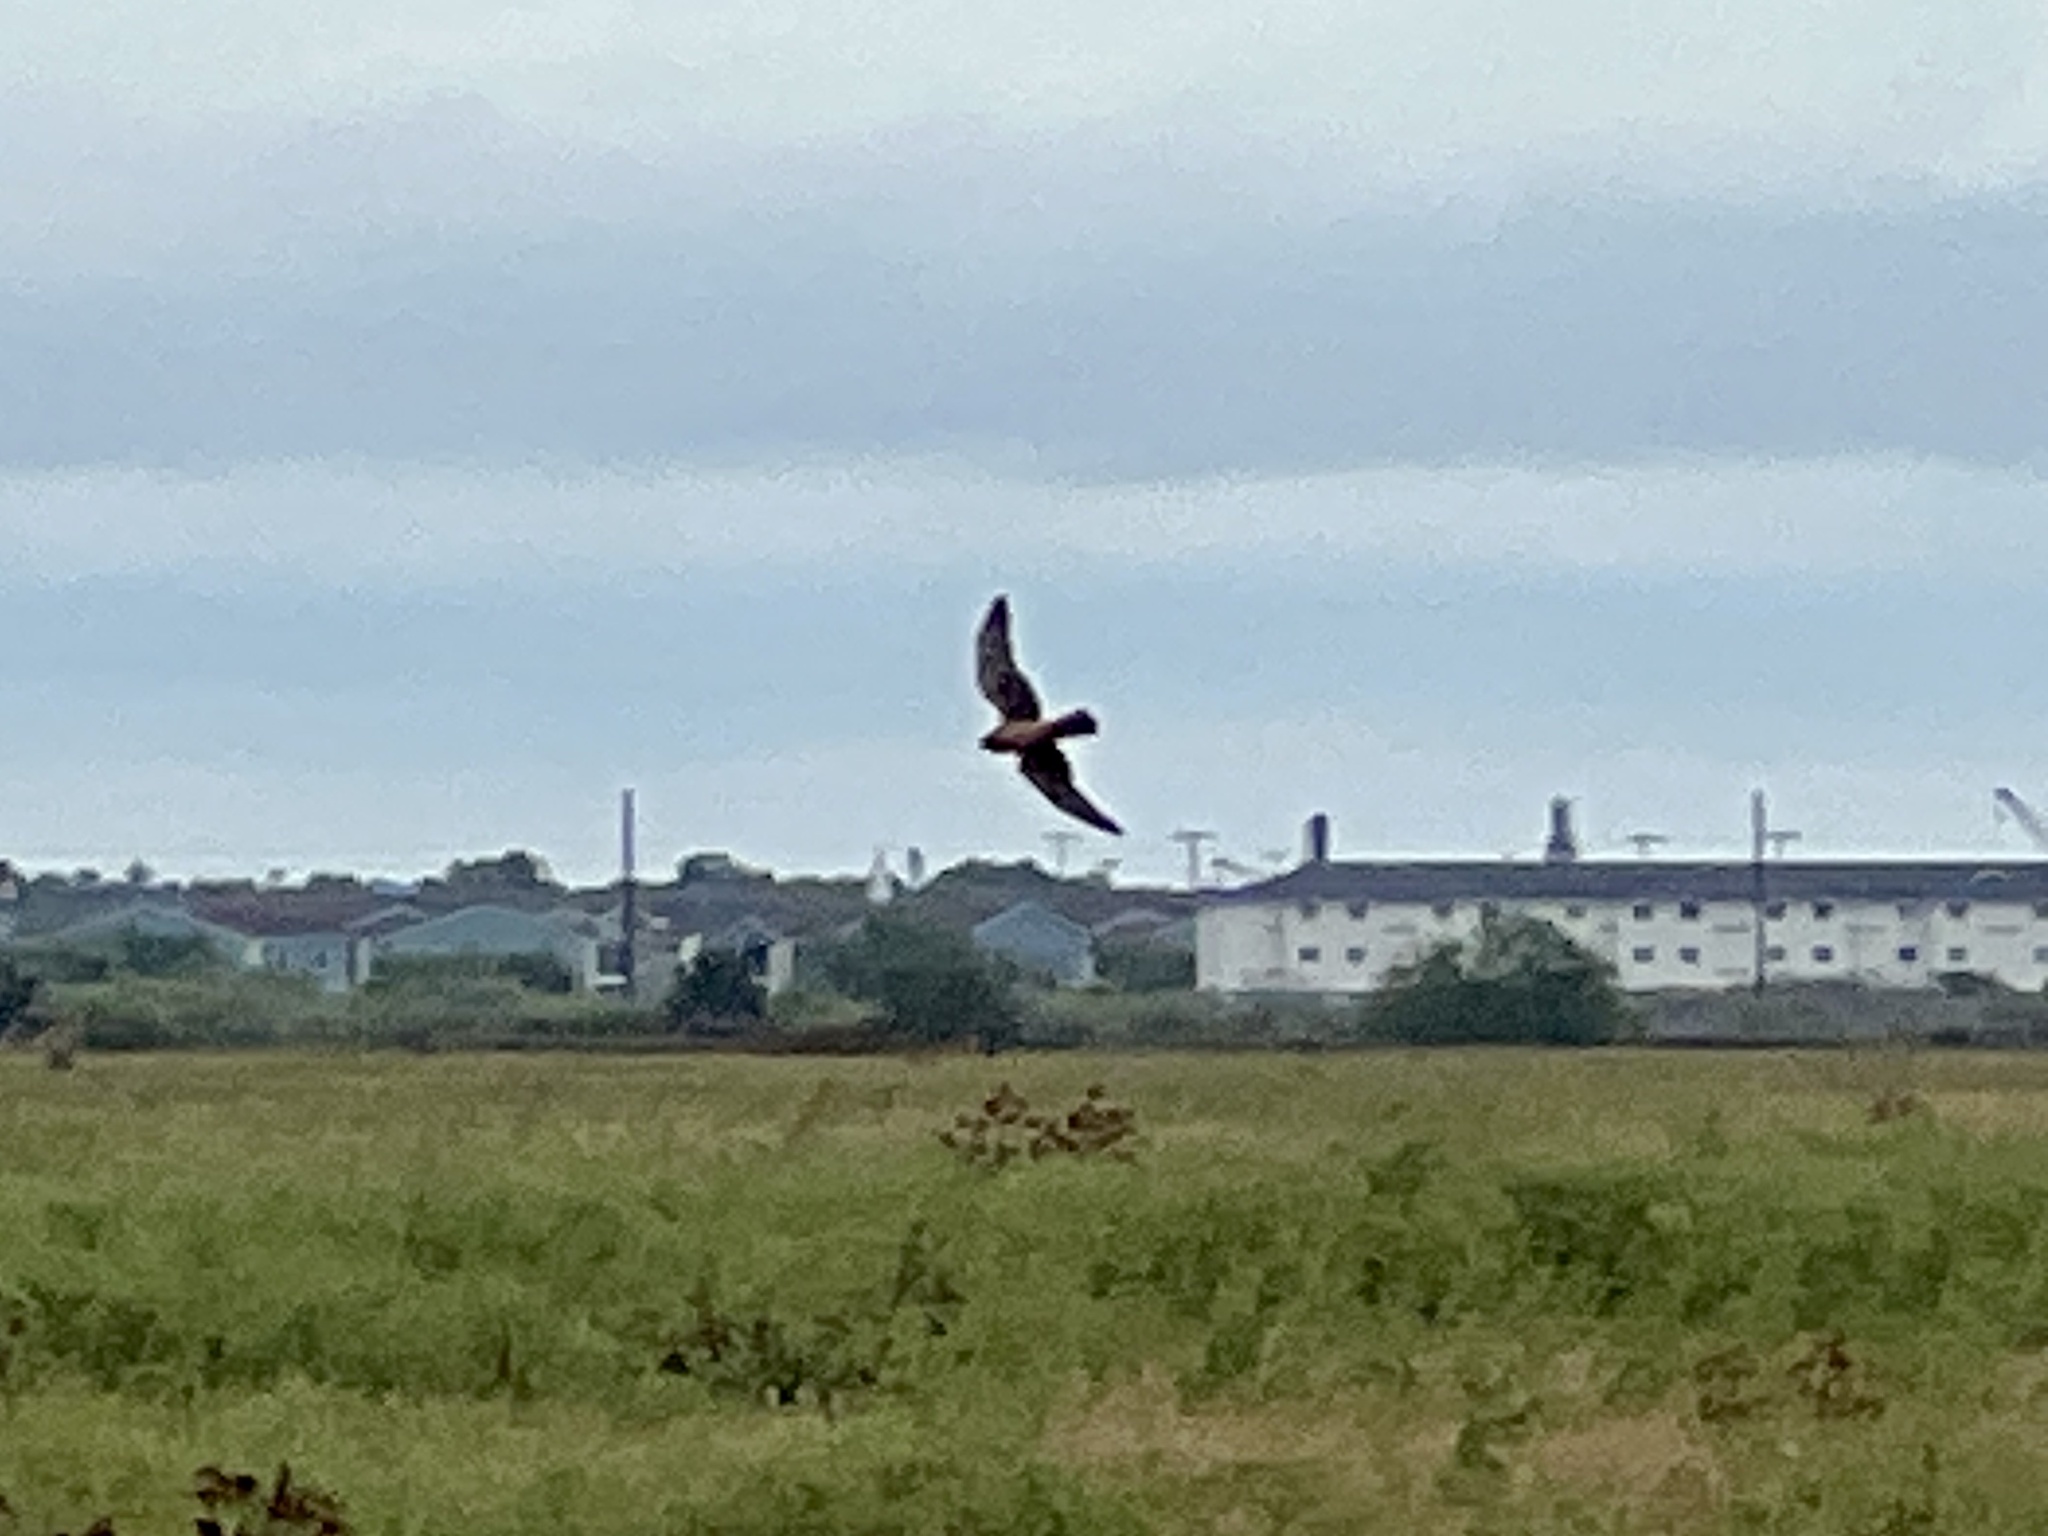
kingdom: Animalia
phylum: Chordata
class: Aves
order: Accipitriformes
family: Accipitridae
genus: Circus
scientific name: Circus cyaneus
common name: Hen harrier
